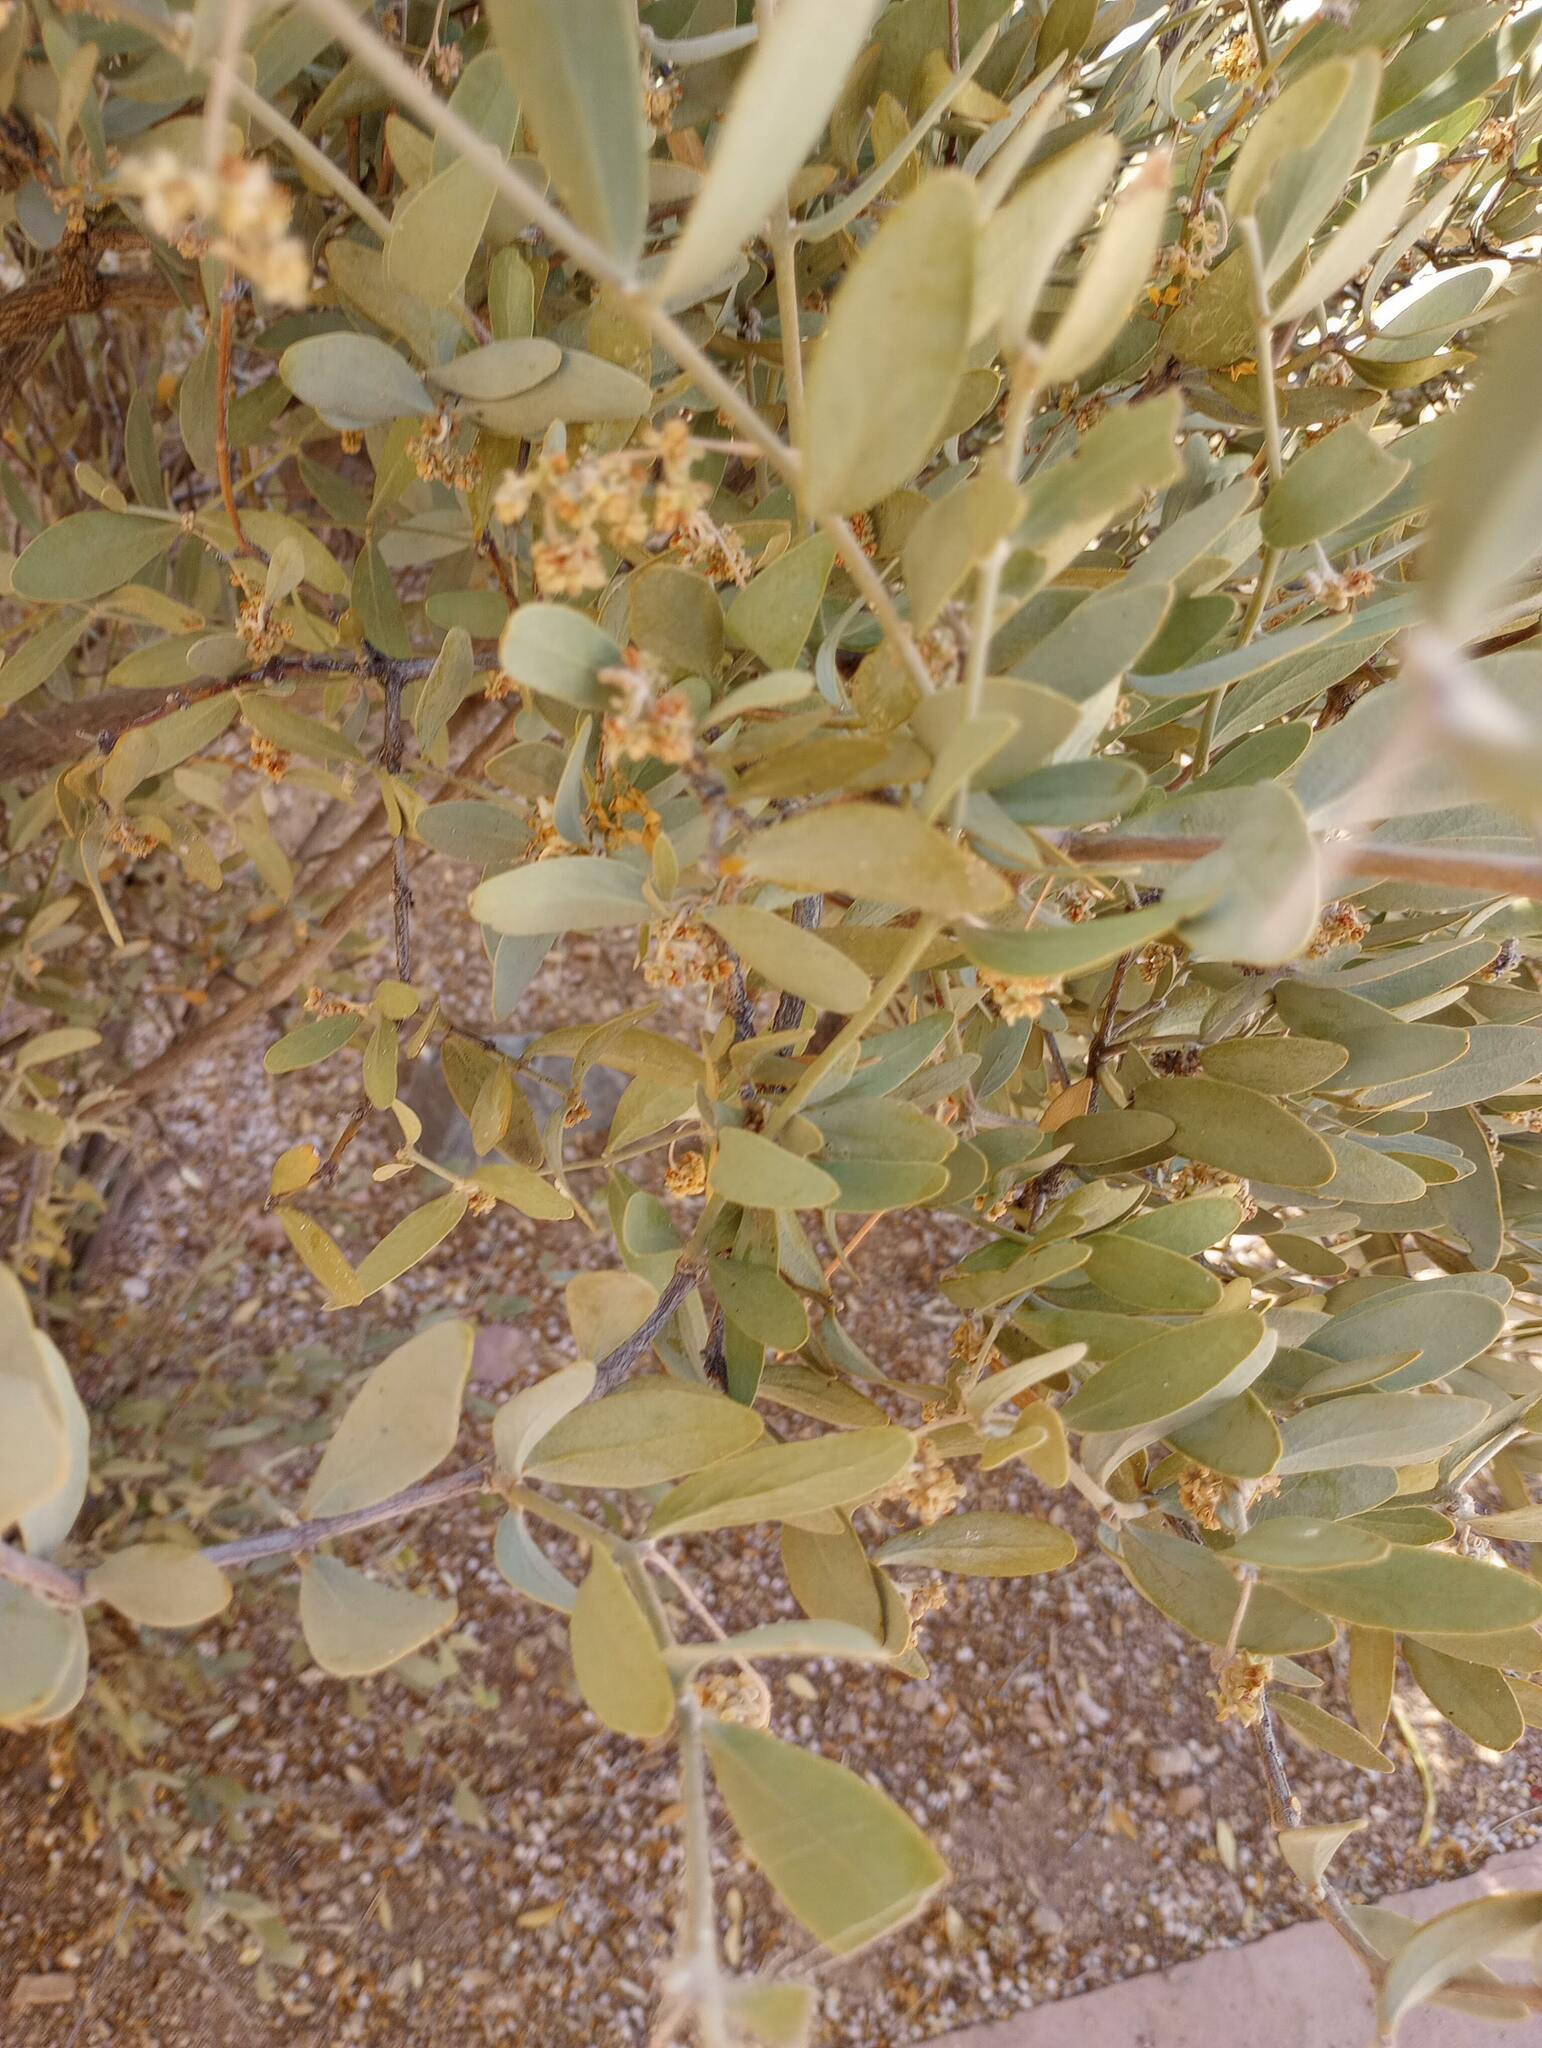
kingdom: Plantae
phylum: Tracheophyta
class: Magnoliopsida
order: Caryophyllales
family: Simmondsiaceae
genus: Simmondsia
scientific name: Simmondsia chinensis
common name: Jojoba
